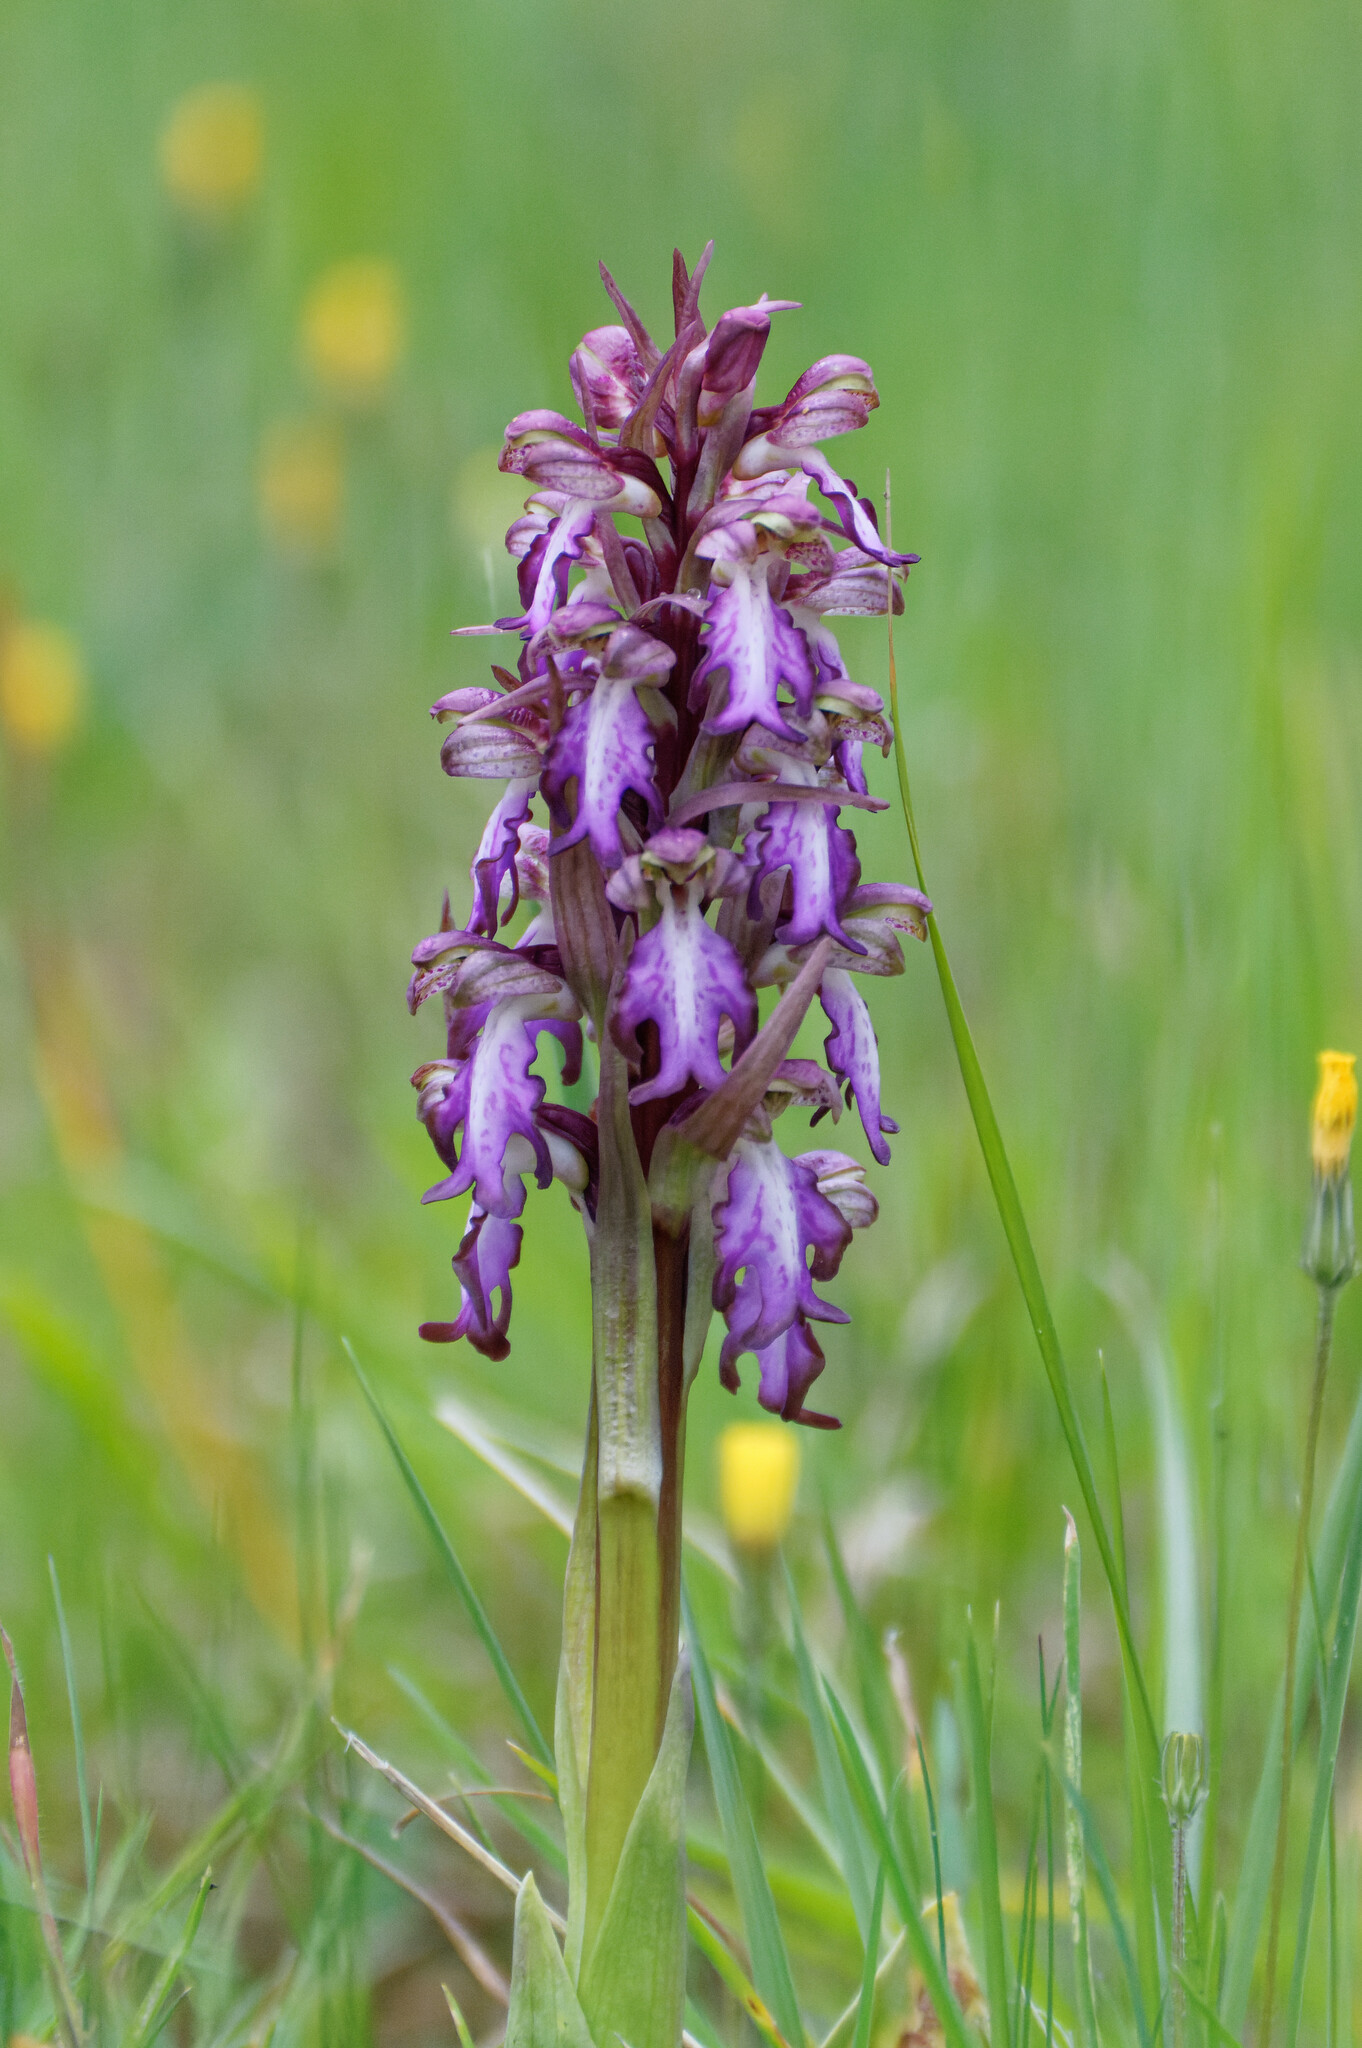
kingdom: Plantae
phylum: Tracheophyta
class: Liliopsida
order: Asparagales
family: Orchidaceae
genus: Himantoglossum
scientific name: Himantoglossum robertianum
